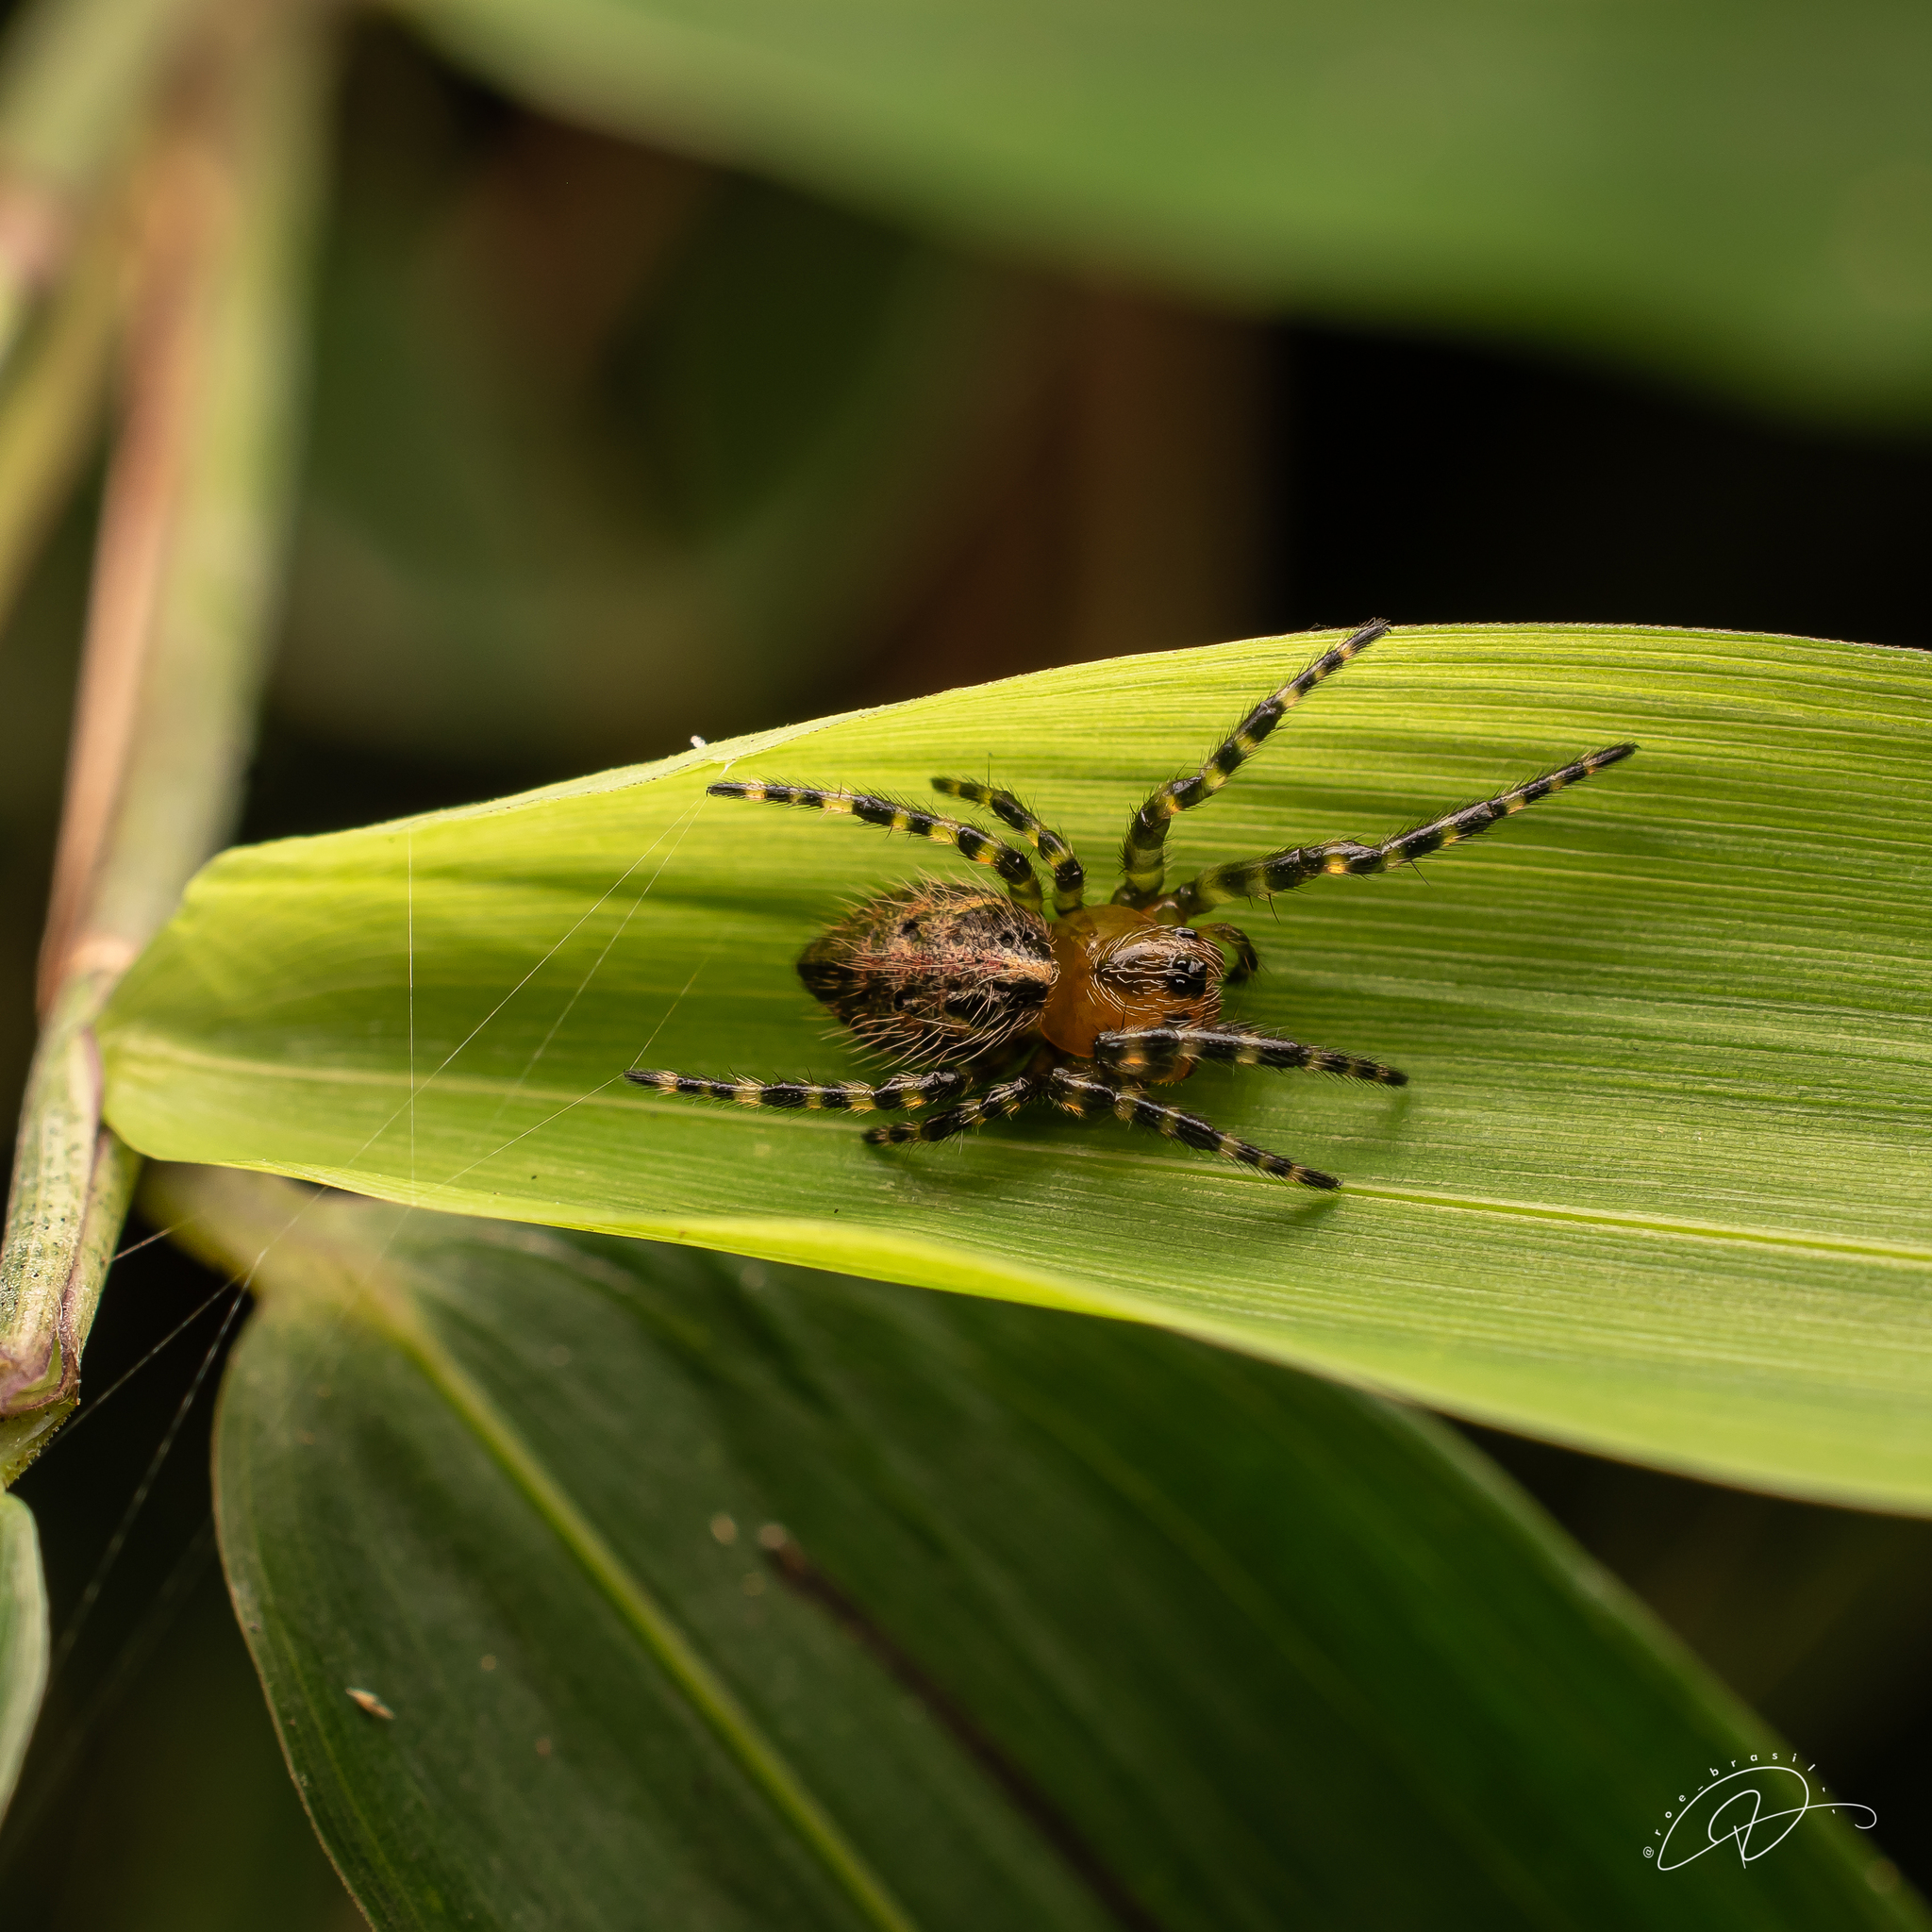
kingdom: Animalia
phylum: Arthropoda
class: Arachnida
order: Araneae
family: Araneidae
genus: Alpaida
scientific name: Alpaida alticeps
